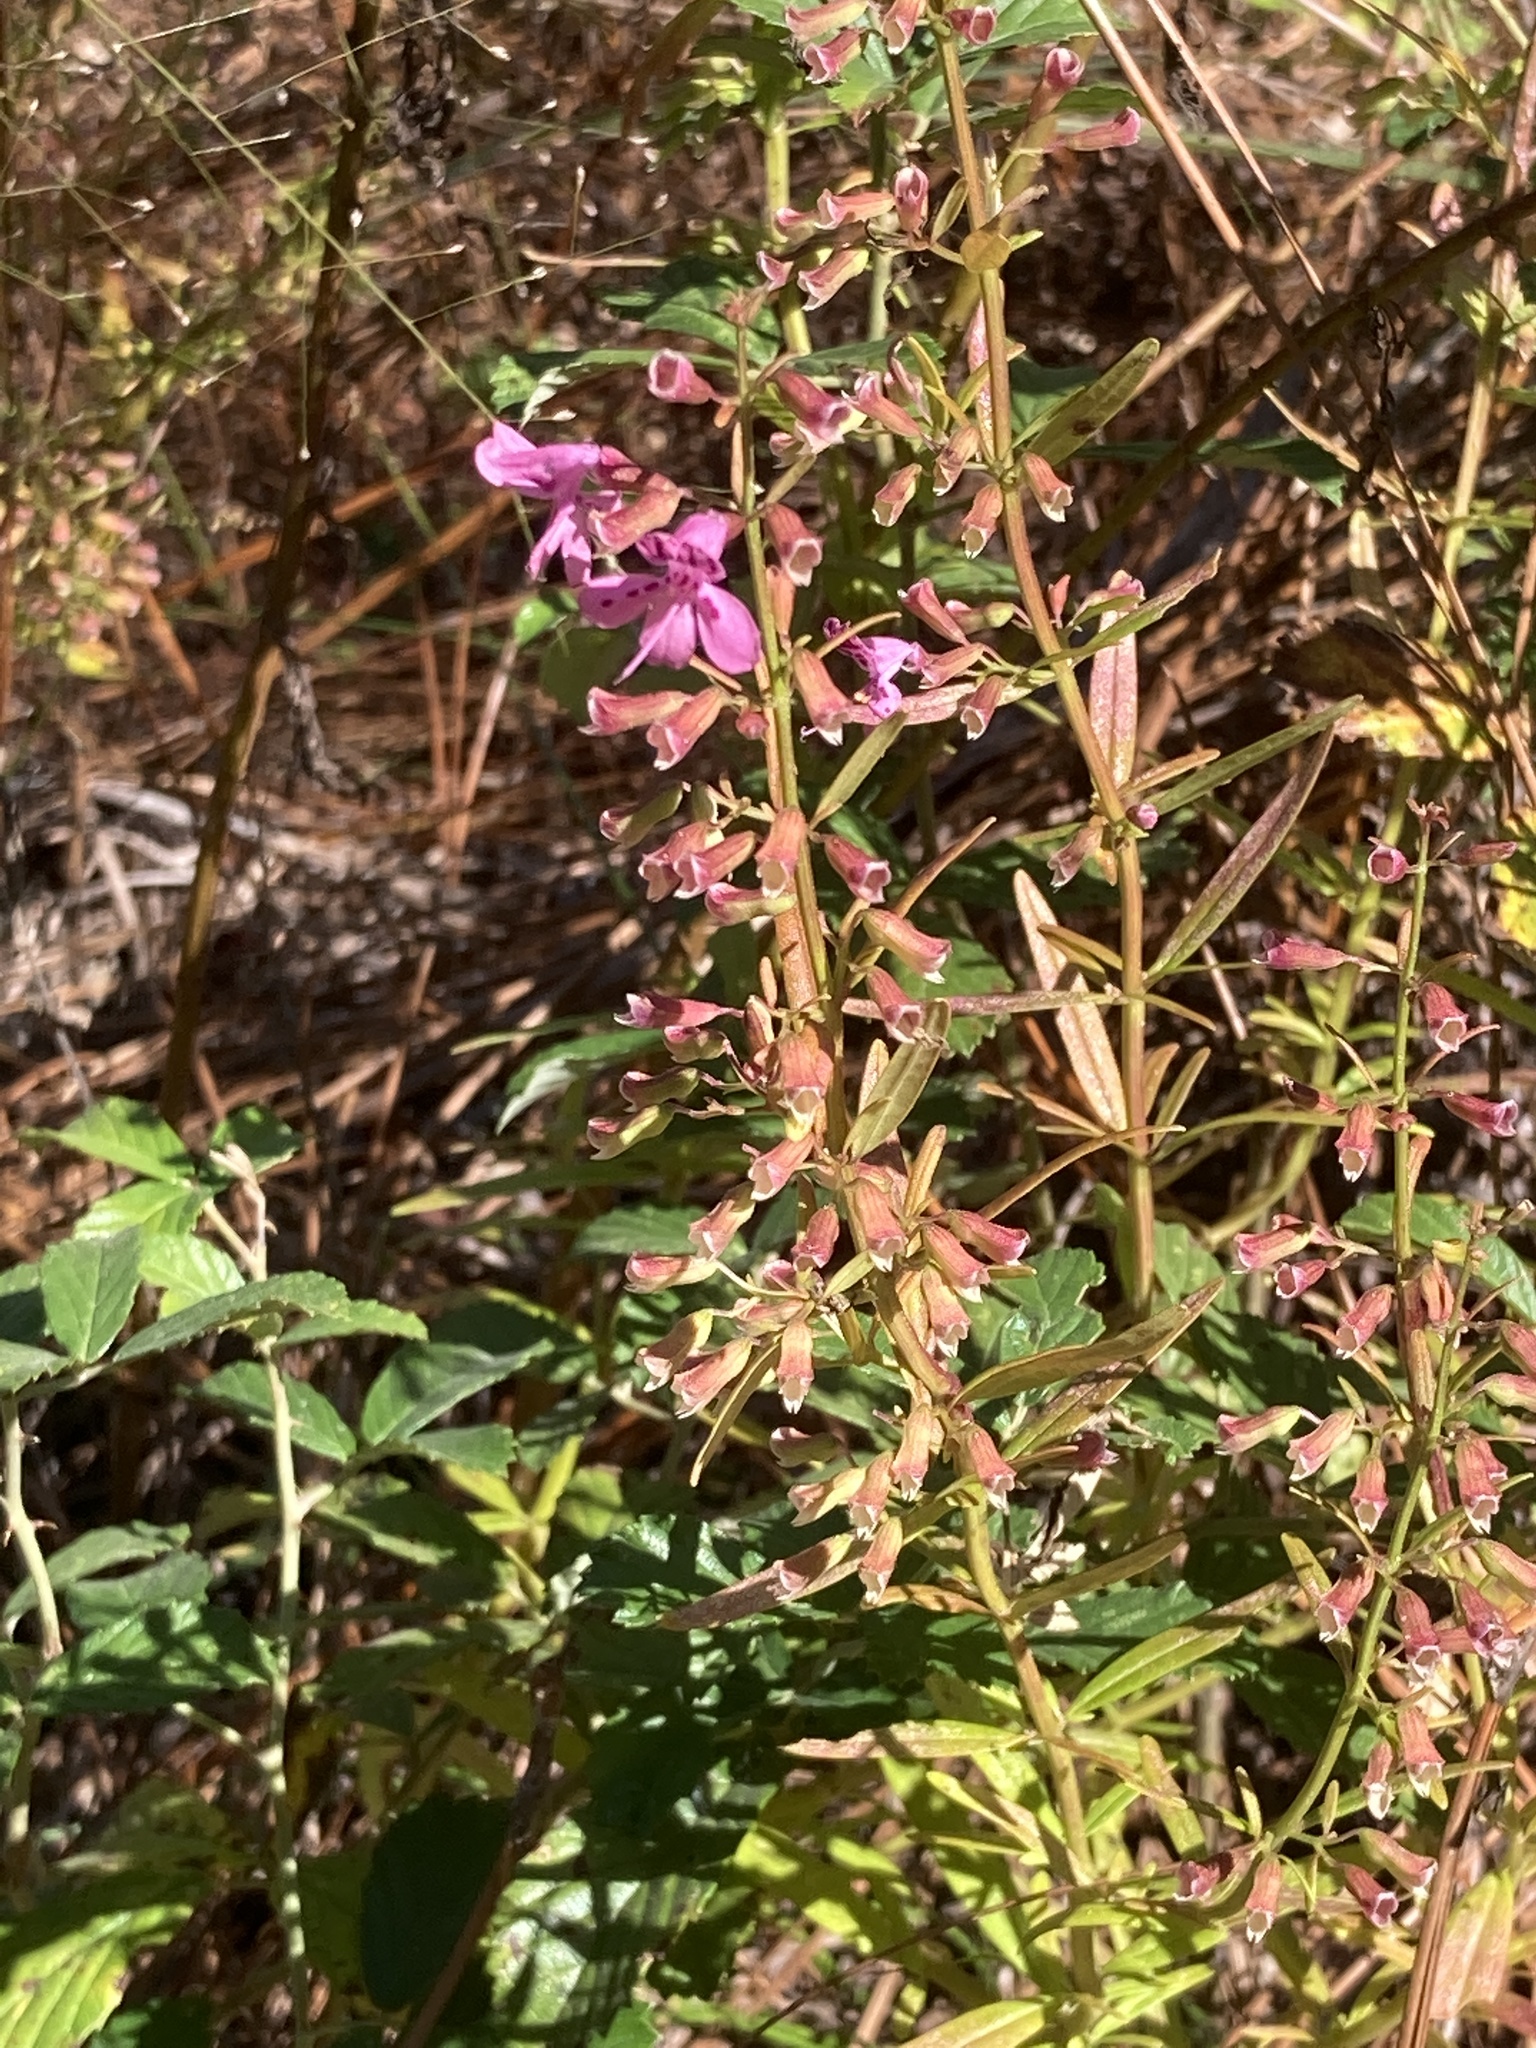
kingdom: Plantae
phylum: Tracheophyta
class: Magnoliopsida
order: Lamiales
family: Lamiaceae
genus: Dicerandra
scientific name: Dicerandra linearifolia
